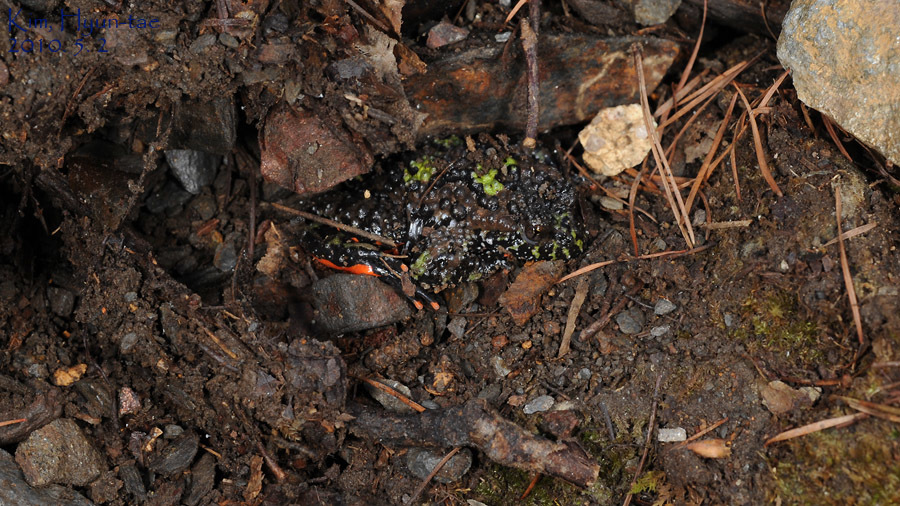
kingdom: Animalia
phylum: Chordata
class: Amphibia
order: Anura
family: Bombinatoridae
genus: Bombina
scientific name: Bombina orientalis
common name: Oriental firebelly toad
